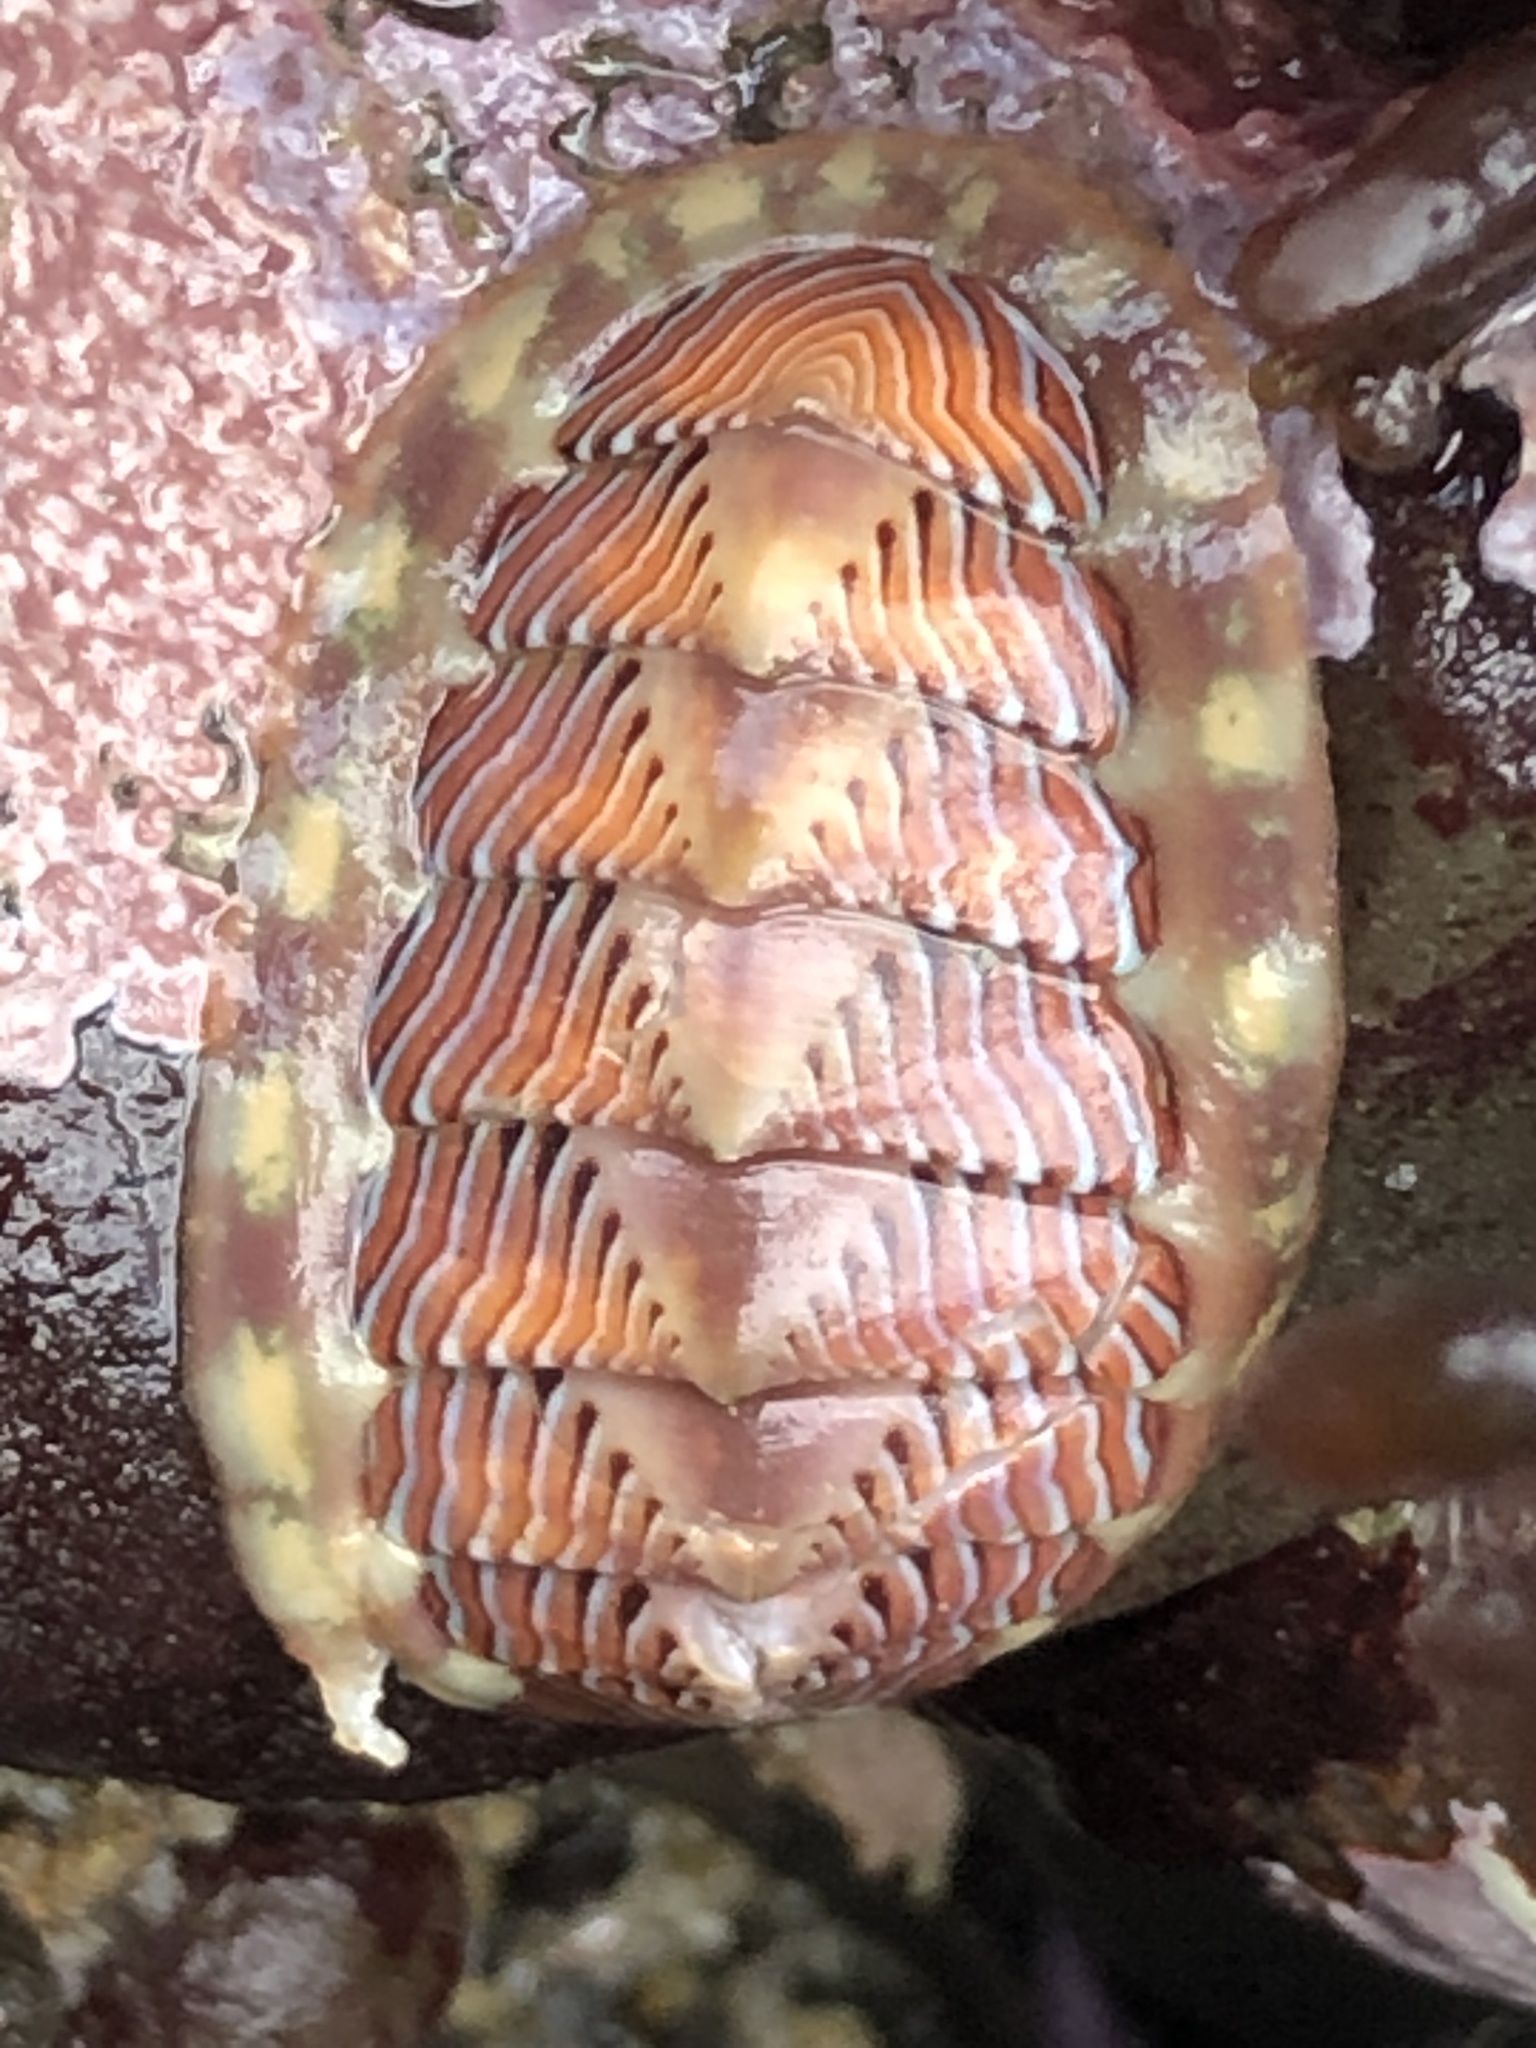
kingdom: Animalia
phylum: Mollusca
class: Polyplacophora
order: Chitonida
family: Tonicellidae
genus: Tonicella
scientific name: Tonicella lineata
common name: Lined chiton
